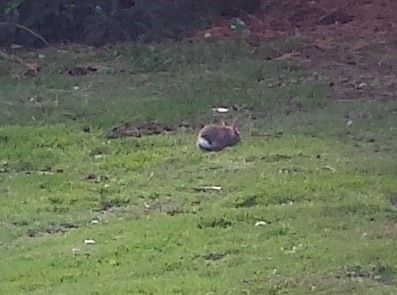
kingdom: Animalia
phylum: Chordata
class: Mammalia
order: Lagomorpha
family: Leporidae
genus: Oryctolagus
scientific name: Oryctolagus cuniculus
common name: European rabbit
